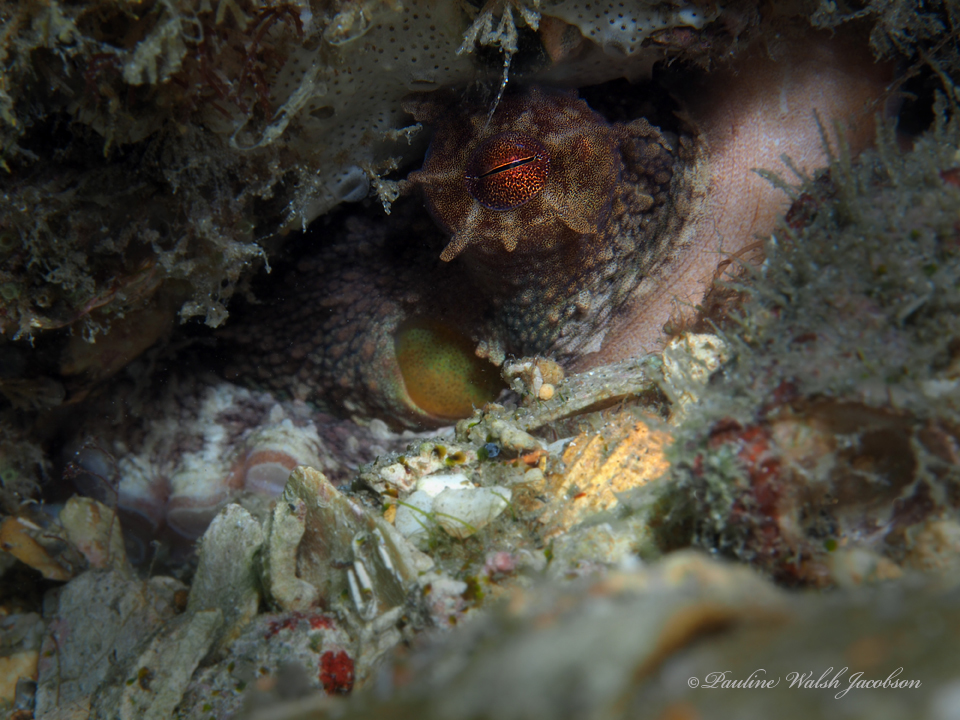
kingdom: Animalia
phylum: Mollusca
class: Cephalopoda
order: Octopoda
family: Octopodidae
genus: Octopus
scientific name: Octopus americanus
